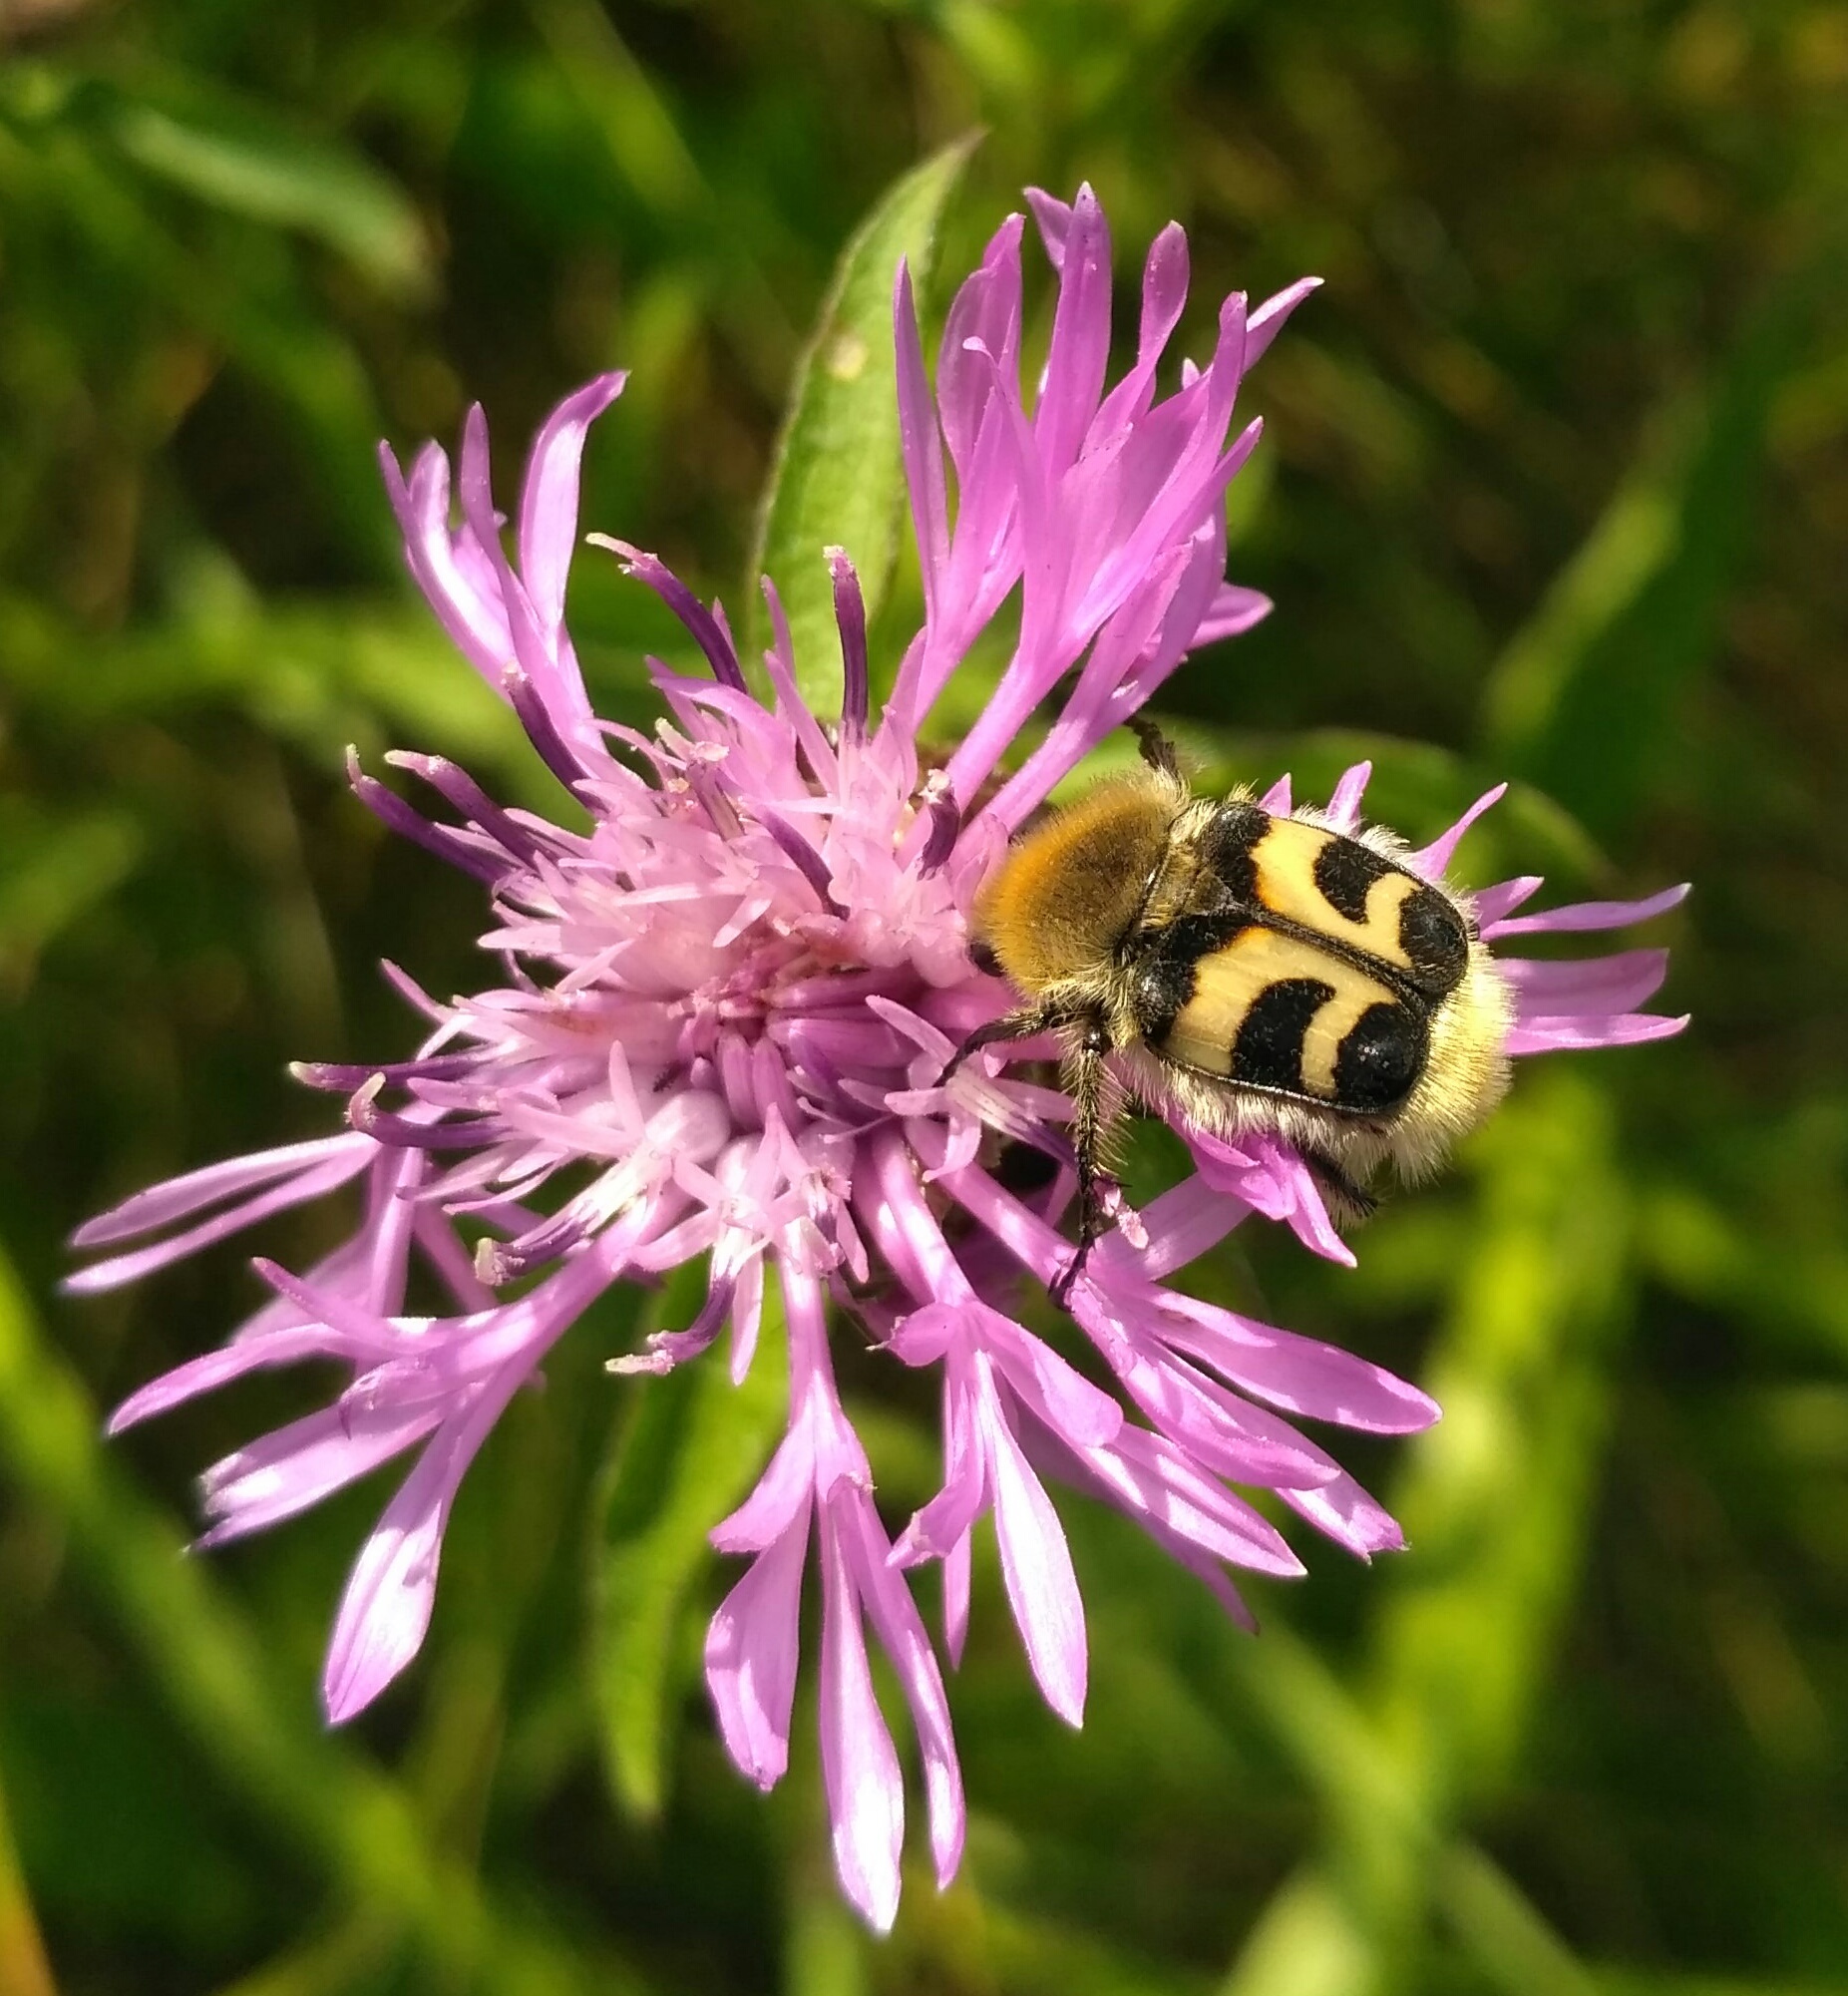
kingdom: Animalia
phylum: Arthropoda
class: Insecta
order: Coleoptera
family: Scarabaeidae
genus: Trichius
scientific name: Trichius fasciatus
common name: Bee beetle
